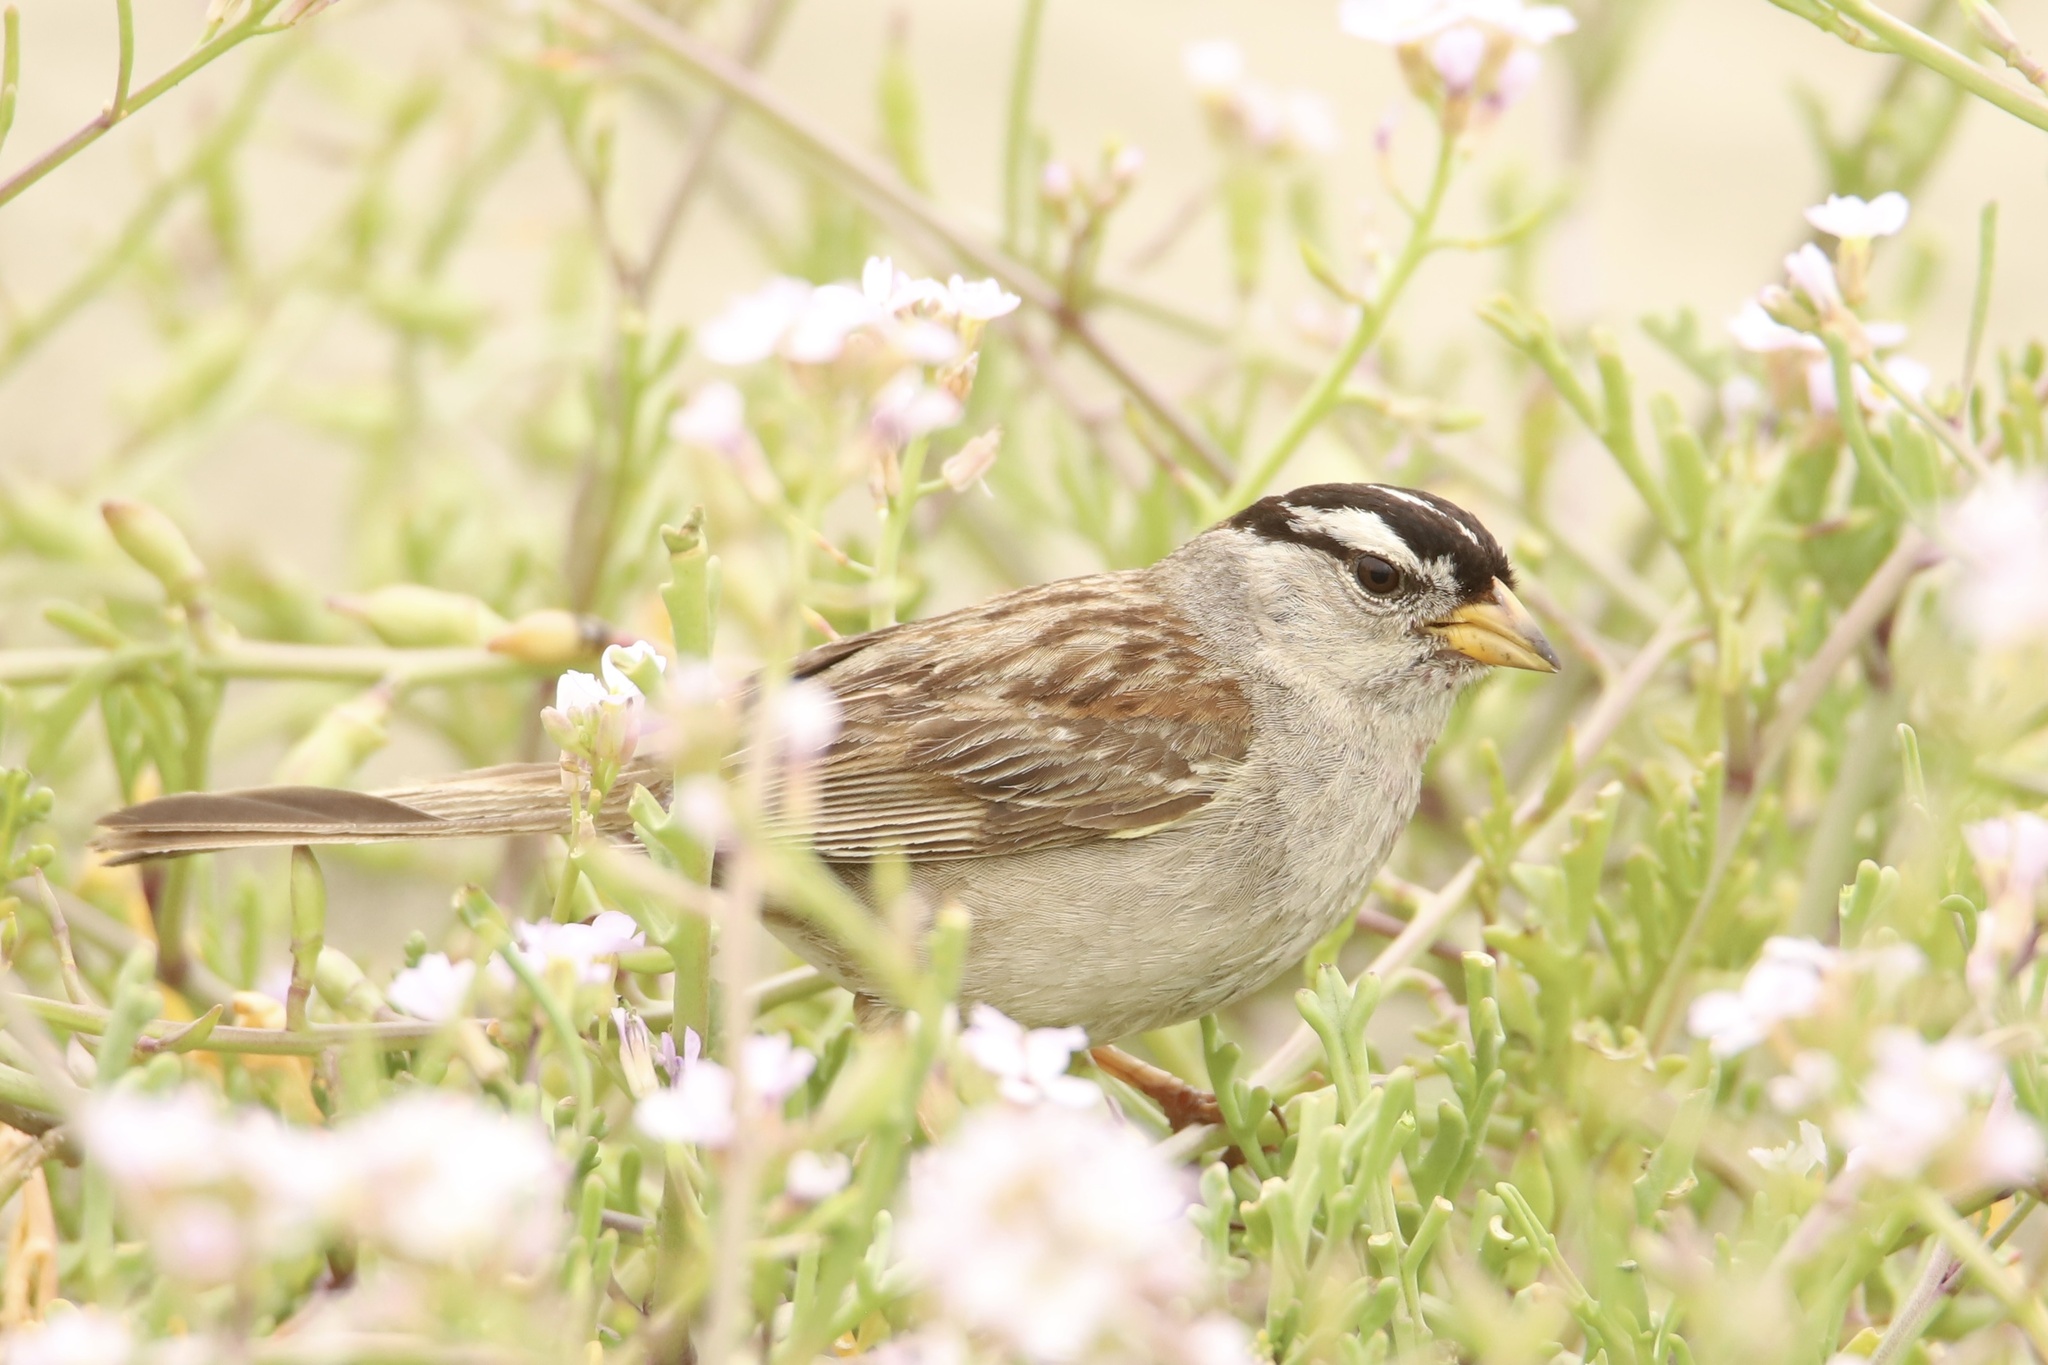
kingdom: Animalia
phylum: Chordata
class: Aves
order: Passeriformes
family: Passerellidae
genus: Zonotrichia
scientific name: Zonotrichia leucophrys
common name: White-crowned sparrow
